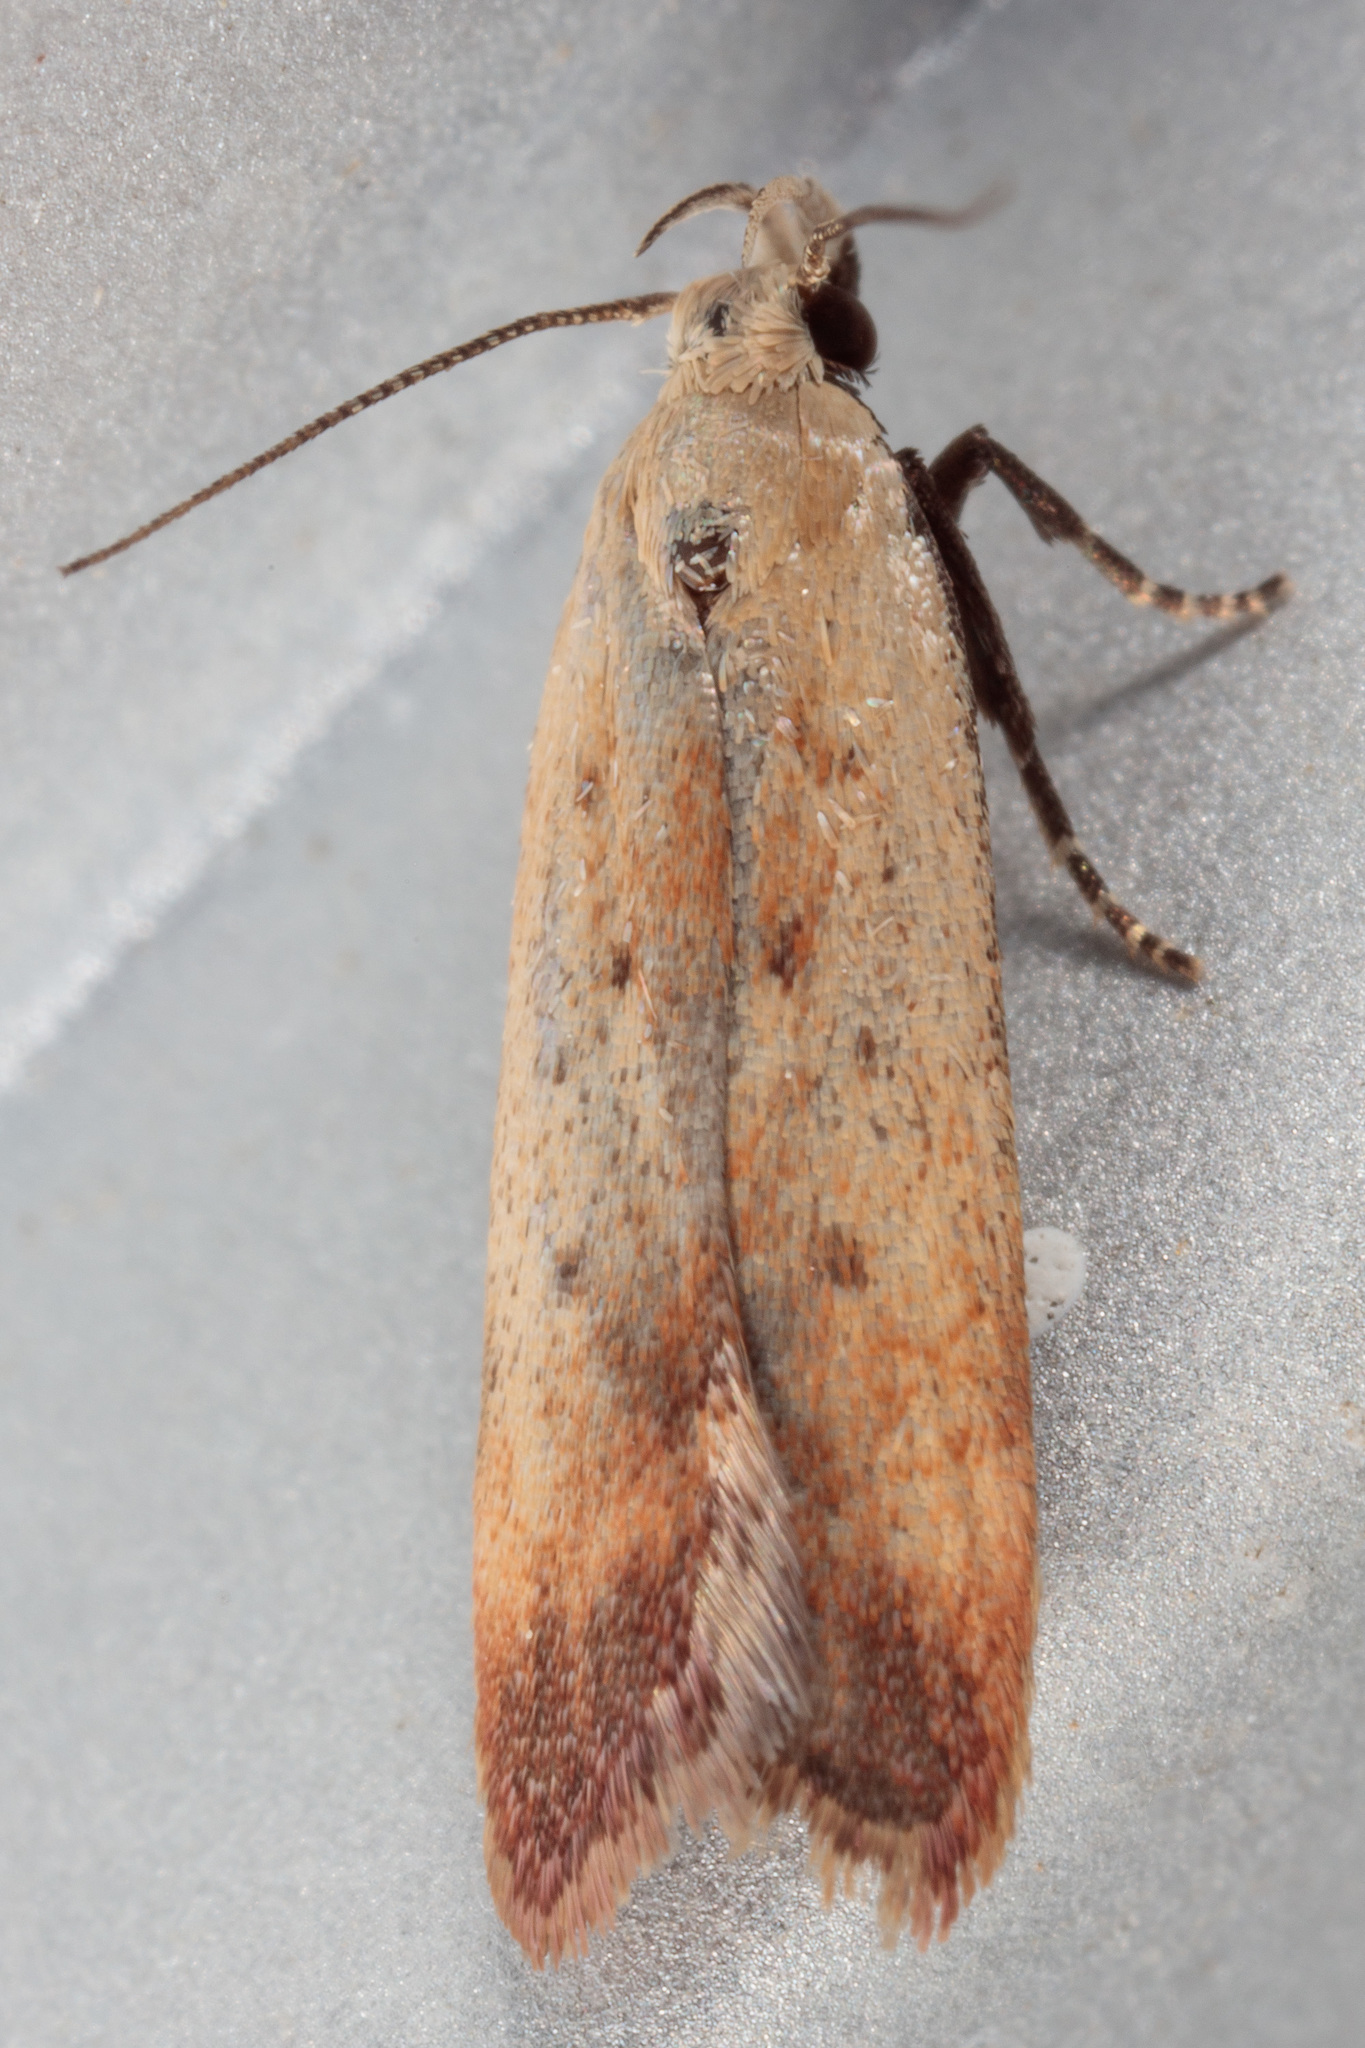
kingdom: Animalia
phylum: Arthropoda
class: Insecta
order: Lepidoptera
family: Gelechiidae
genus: Anacampsis
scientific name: Anacampsis fullonella
